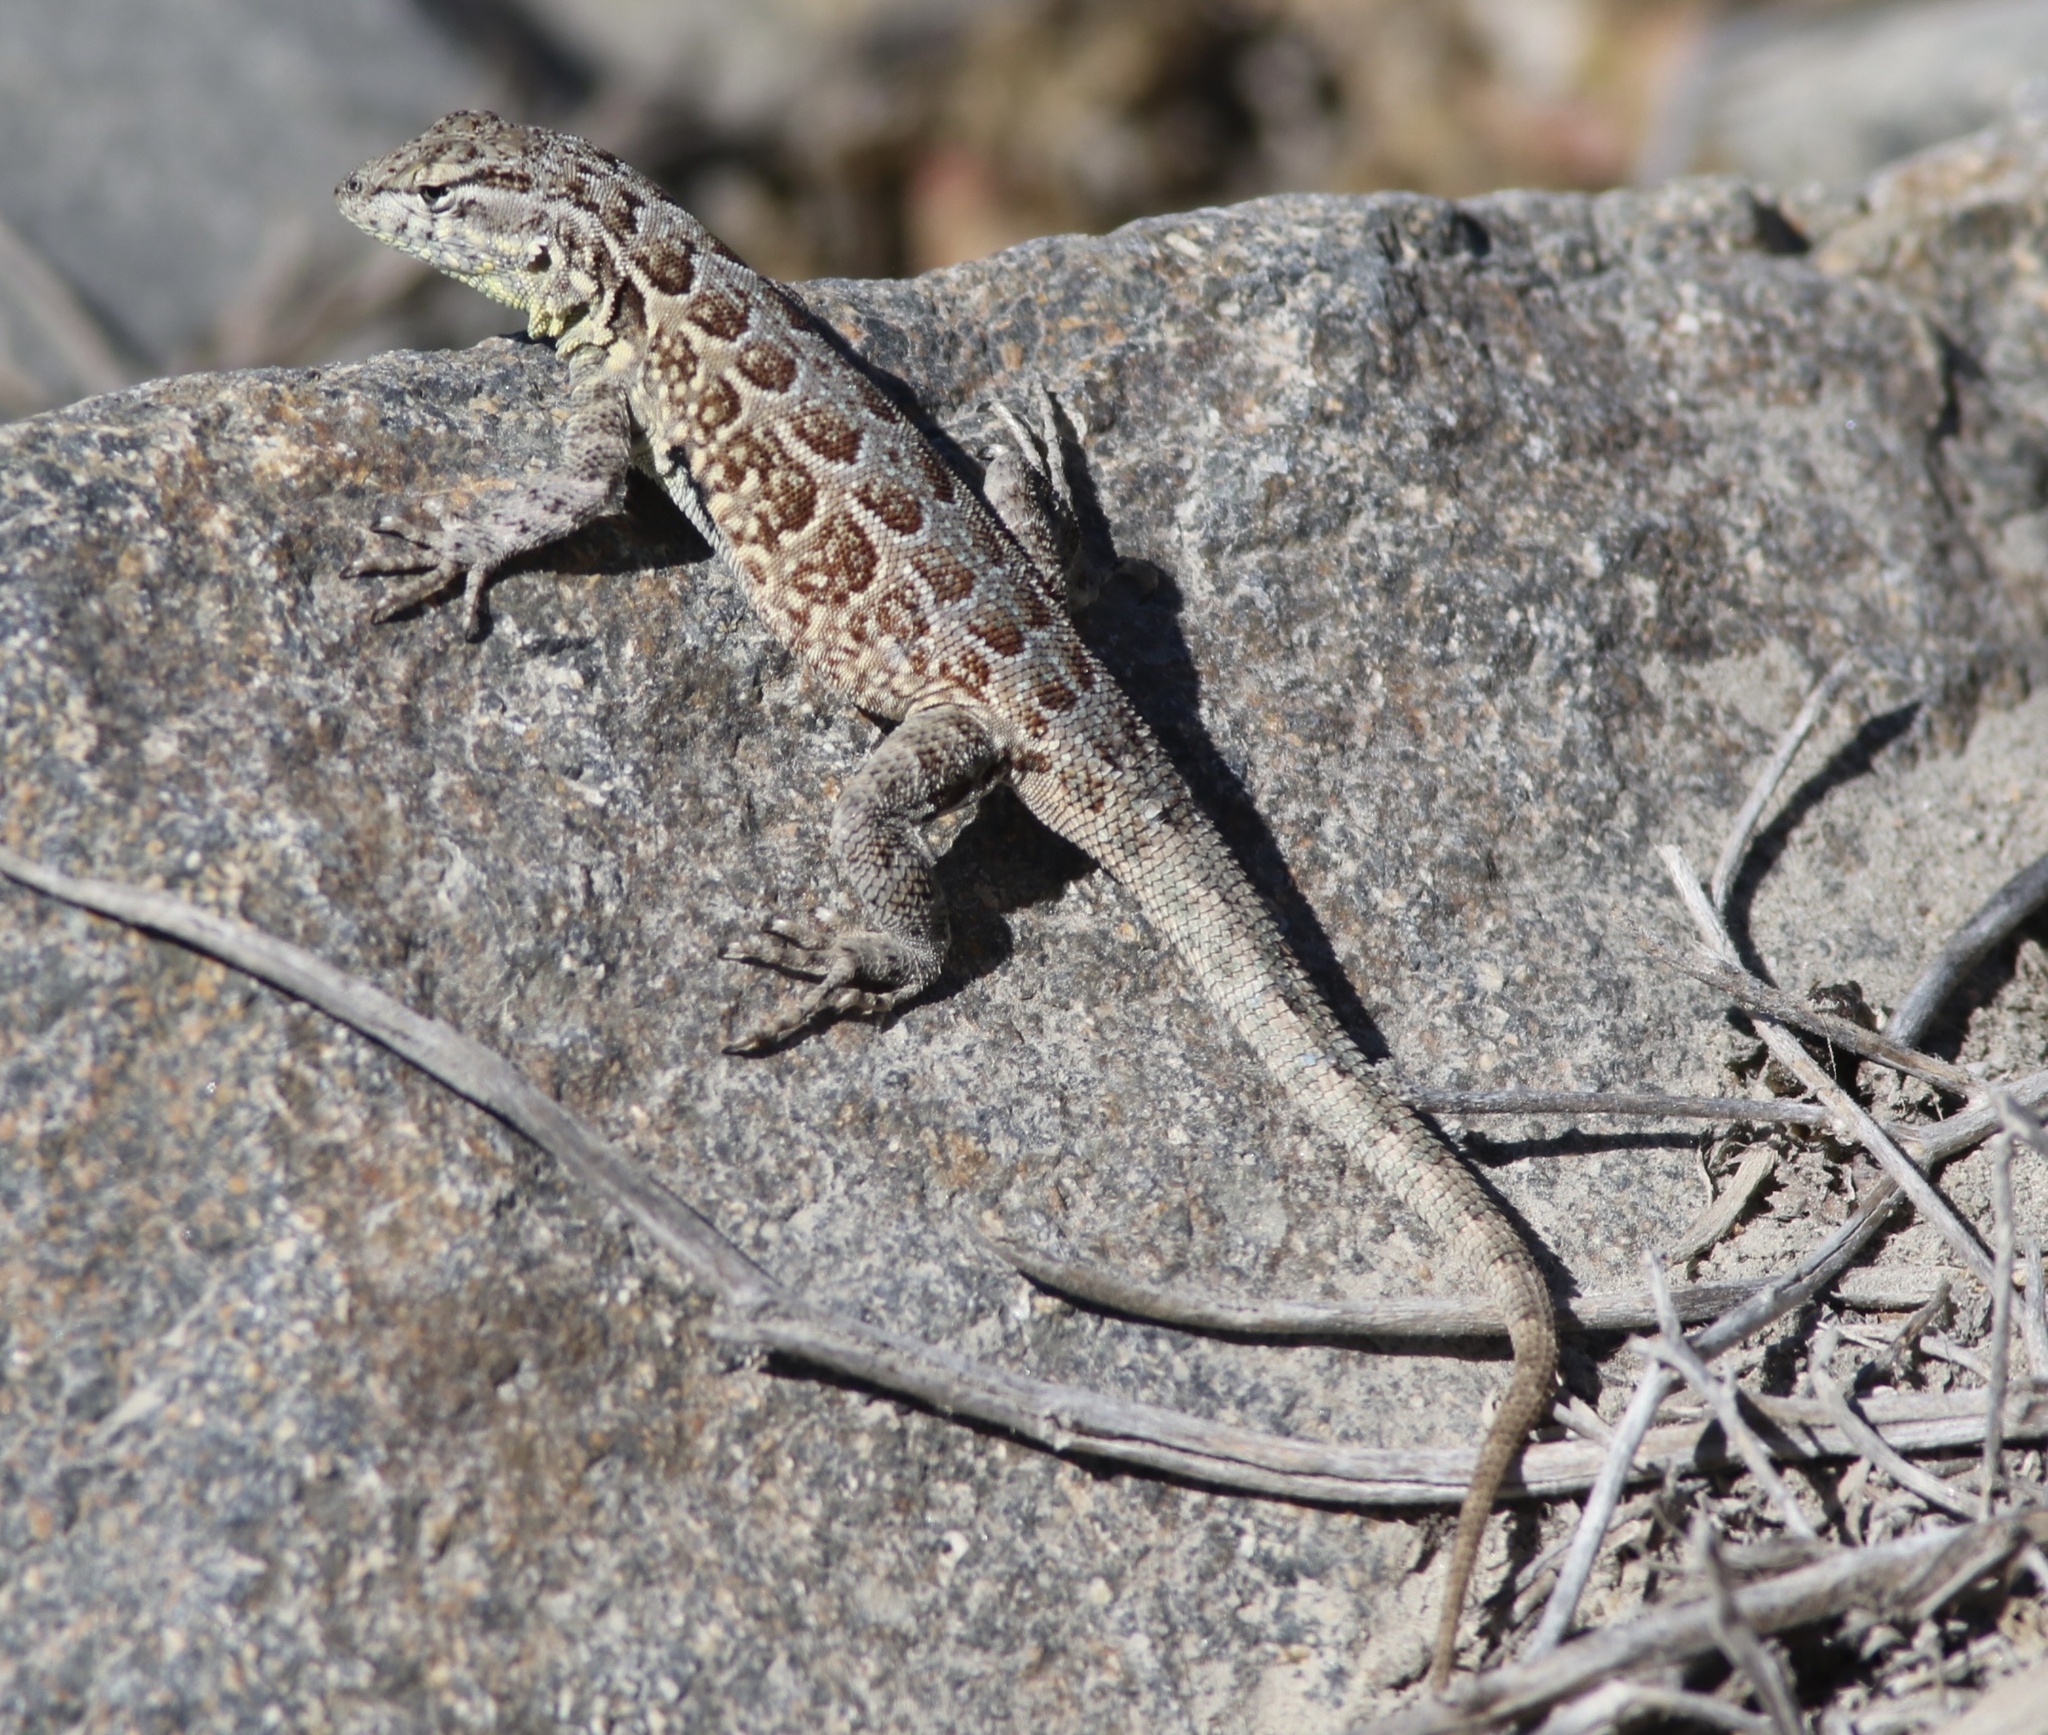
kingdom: Animalia
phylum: Chordata
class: Squamata
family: Phrynosomatidae
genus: Uta
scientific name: Uta stansburiana
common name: Side-blotched lizard
